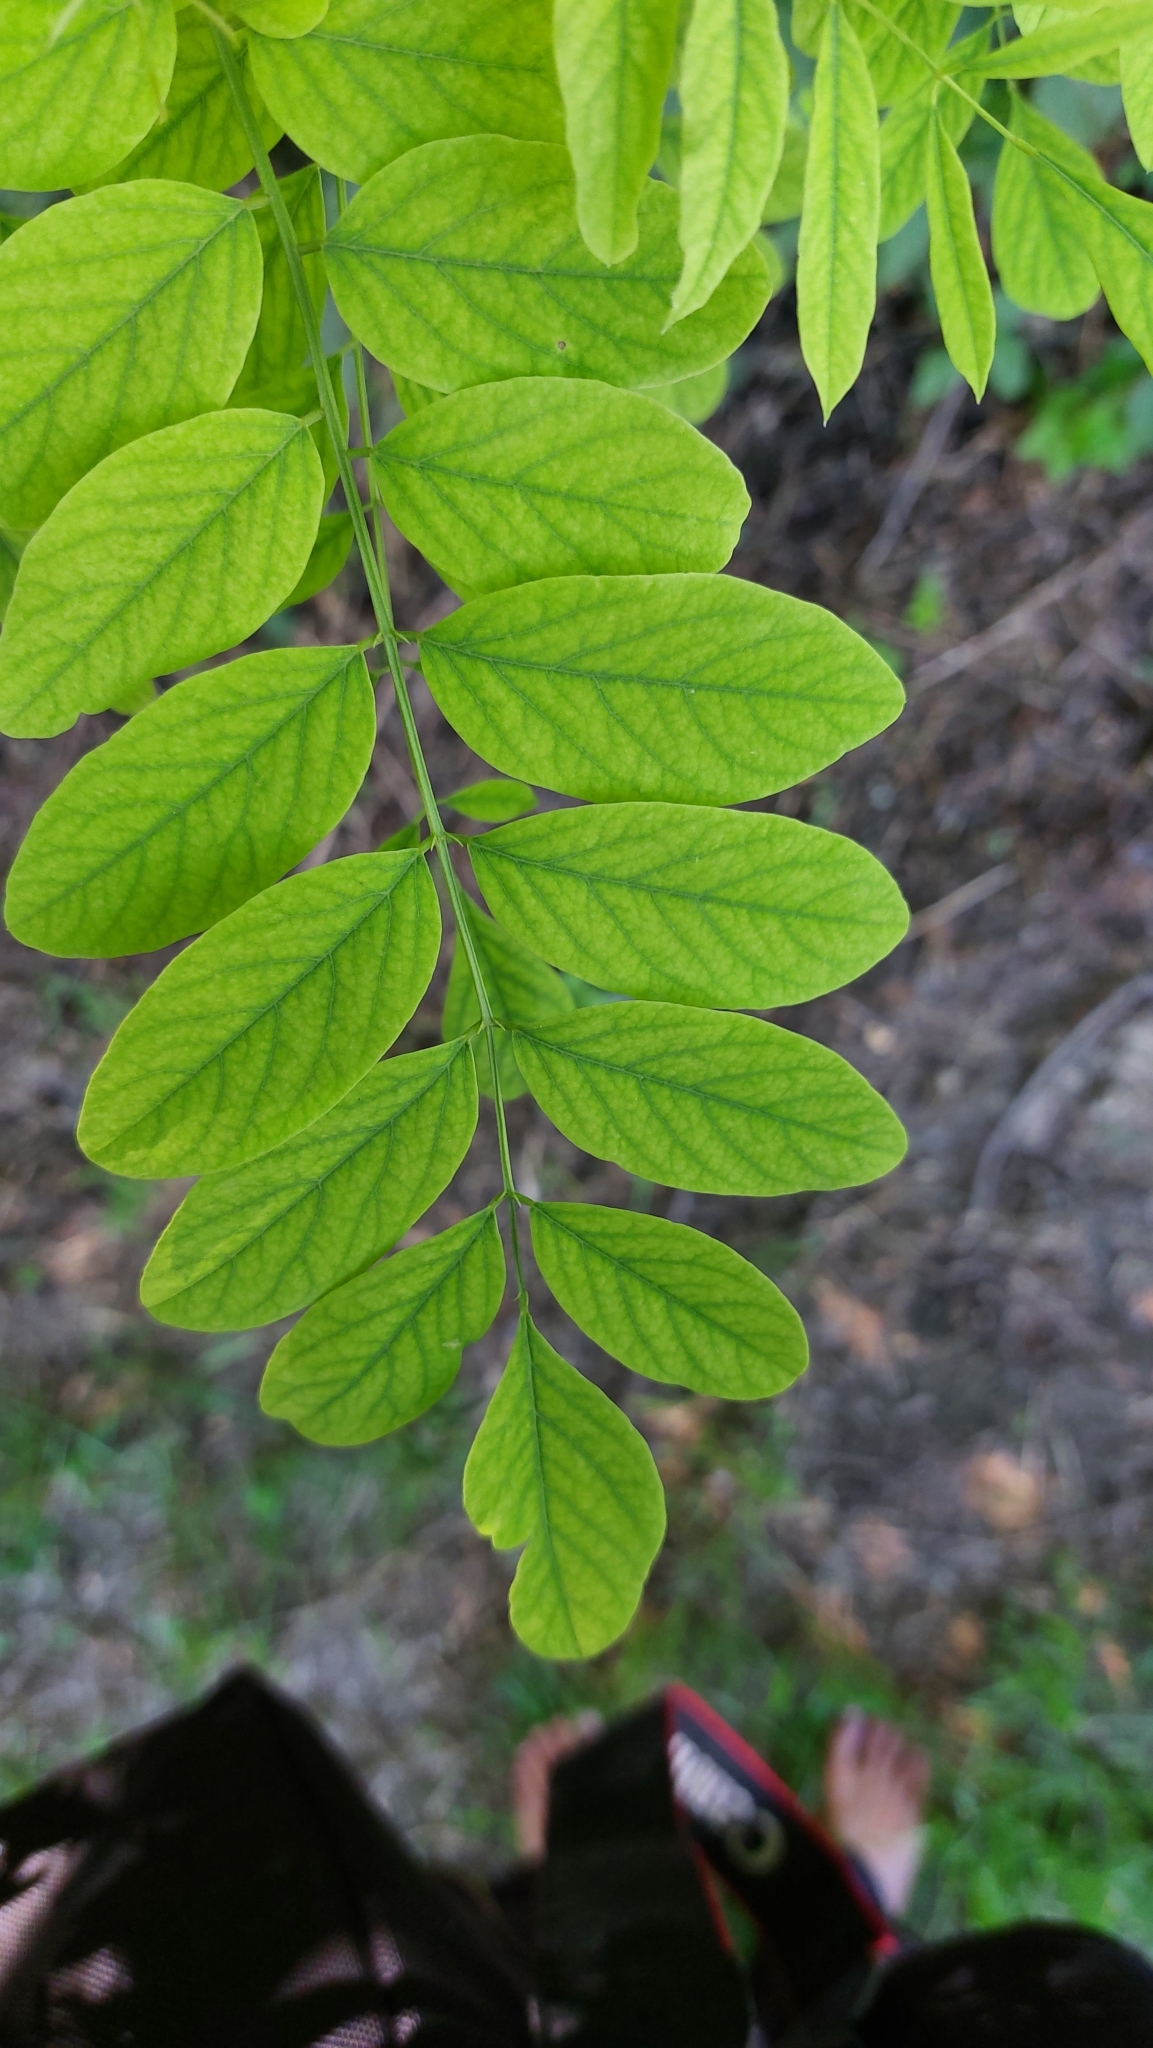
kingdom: Plantae
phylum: Tracheophyta
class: Magnoliopsida
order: Fabales
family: Fabaceae
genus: Robinia
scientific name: Robinia pseudoacacia
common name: Black locust
